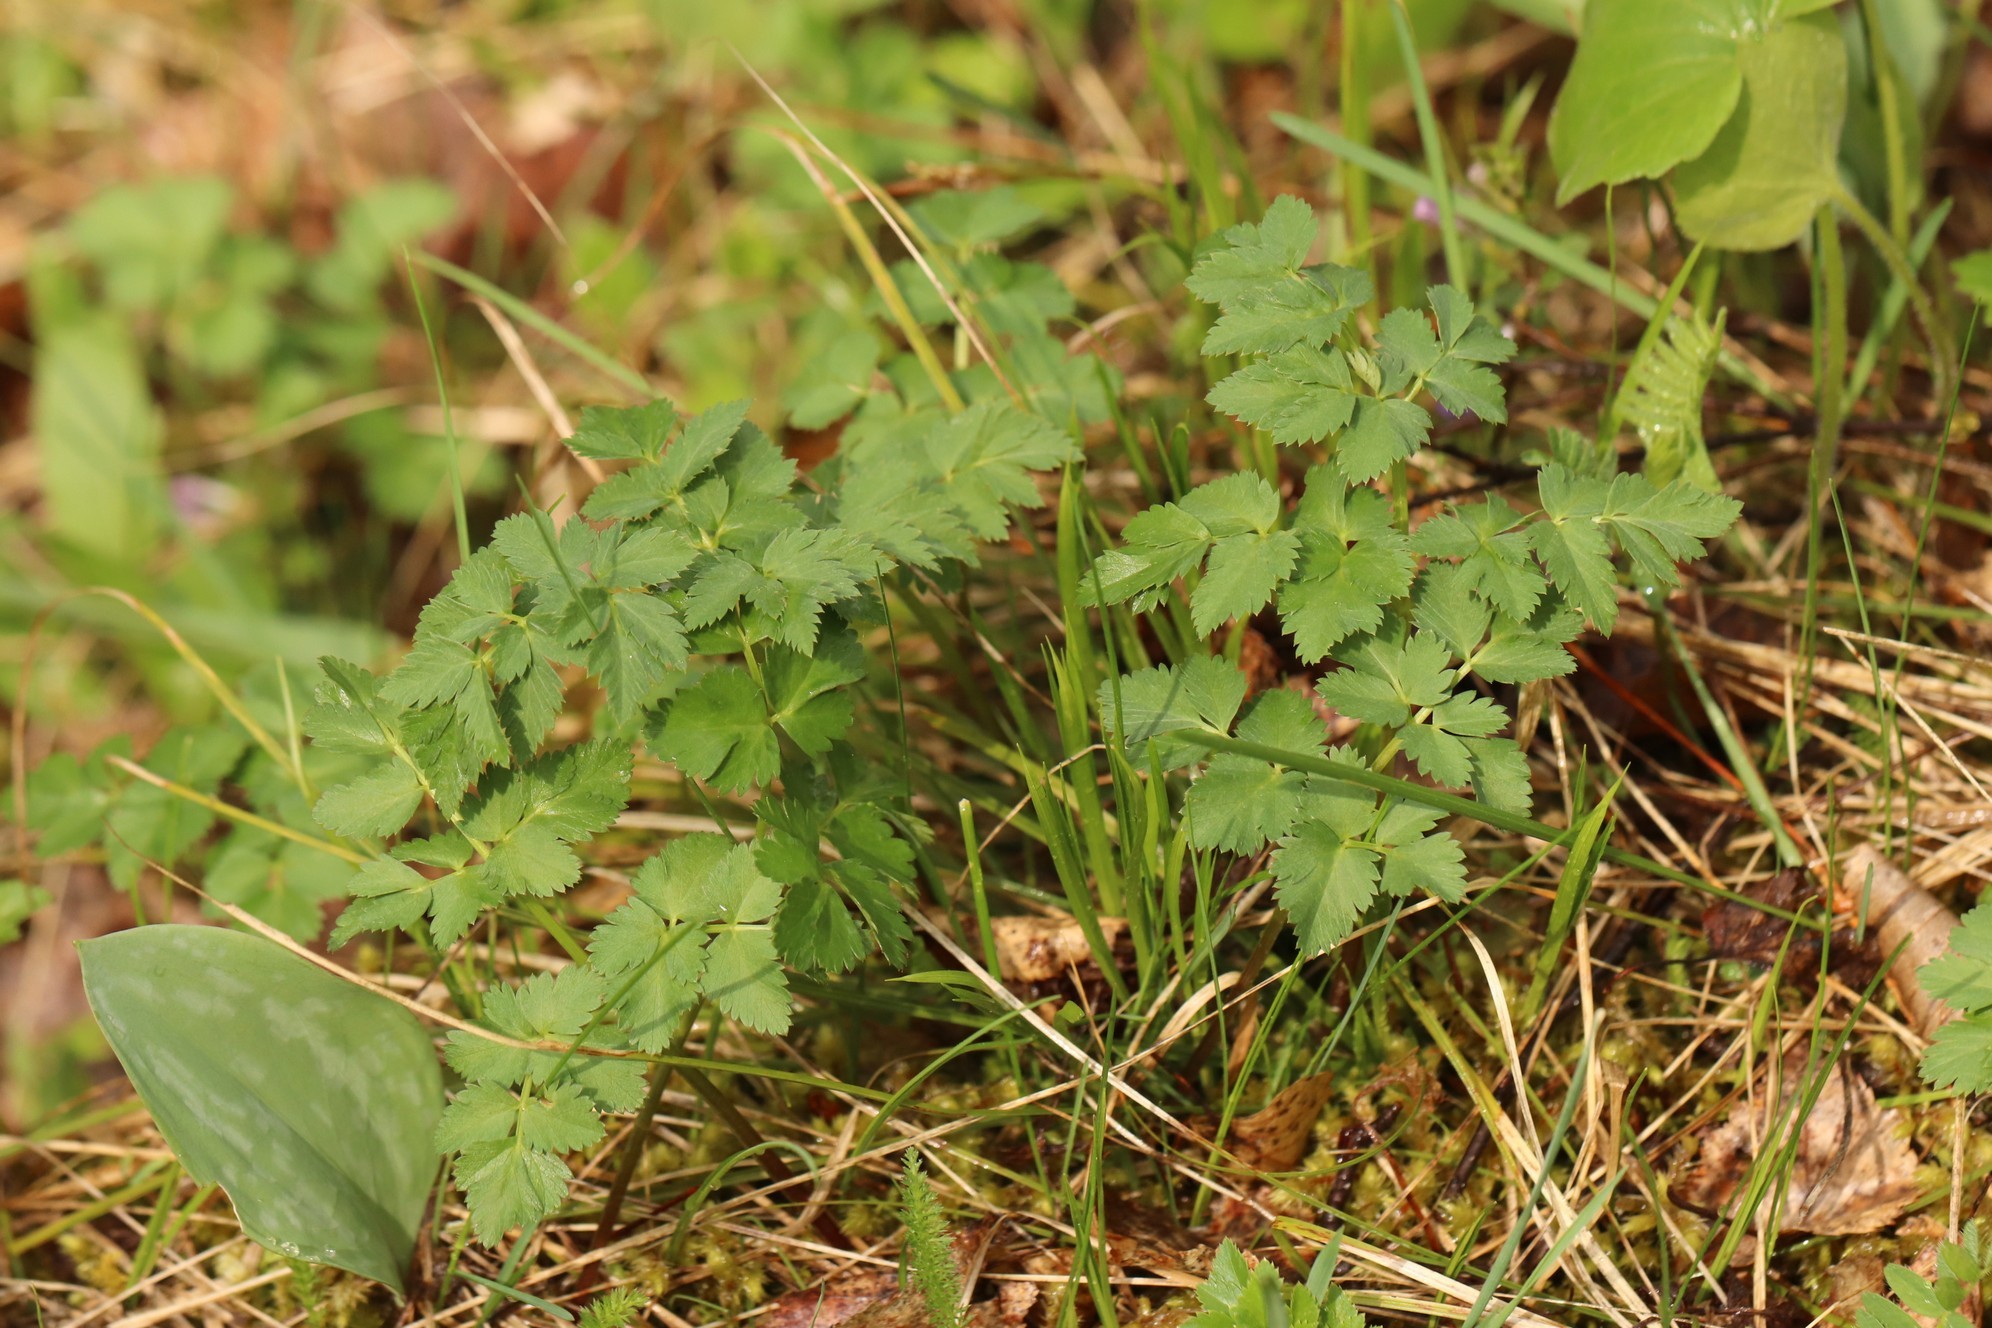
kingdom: Plantae
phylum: Tracheophyta
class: Magnoliopsida
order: Apiales
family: Apiaceae
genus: Aegopodium
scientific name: Aegopodium podagraria
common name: Ground-elder
